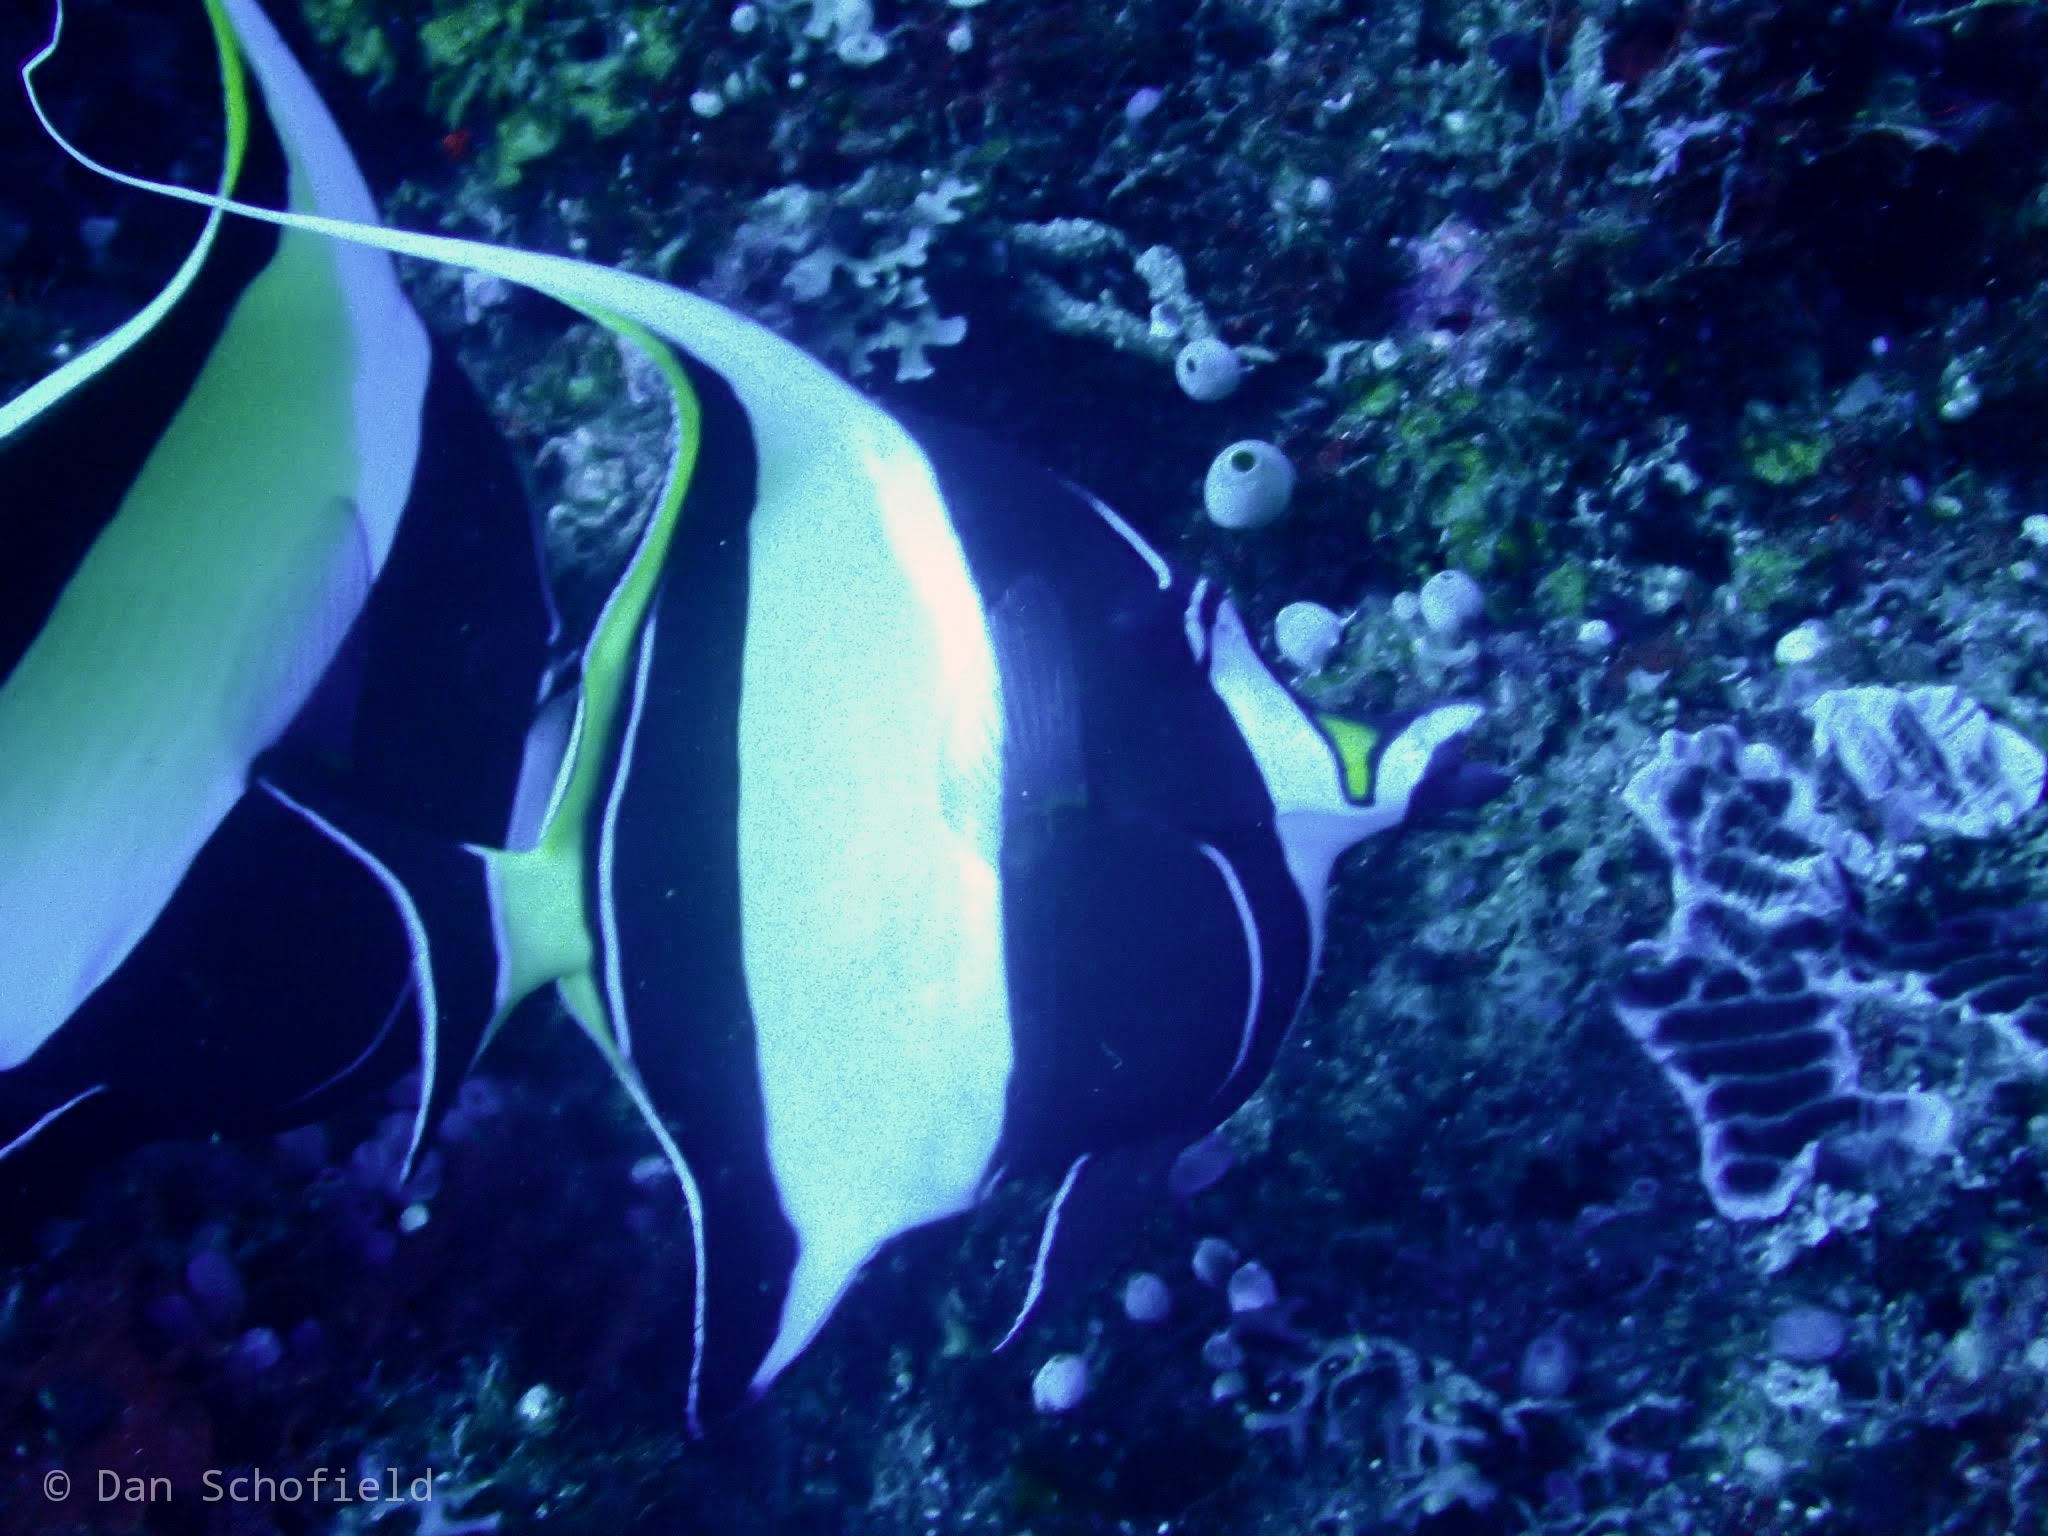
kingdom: Animalia
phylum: Chordata
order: Perciformes
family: Zanclidae
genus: Zanclus
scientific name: Zanclus cornutus
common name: Moorish idol
